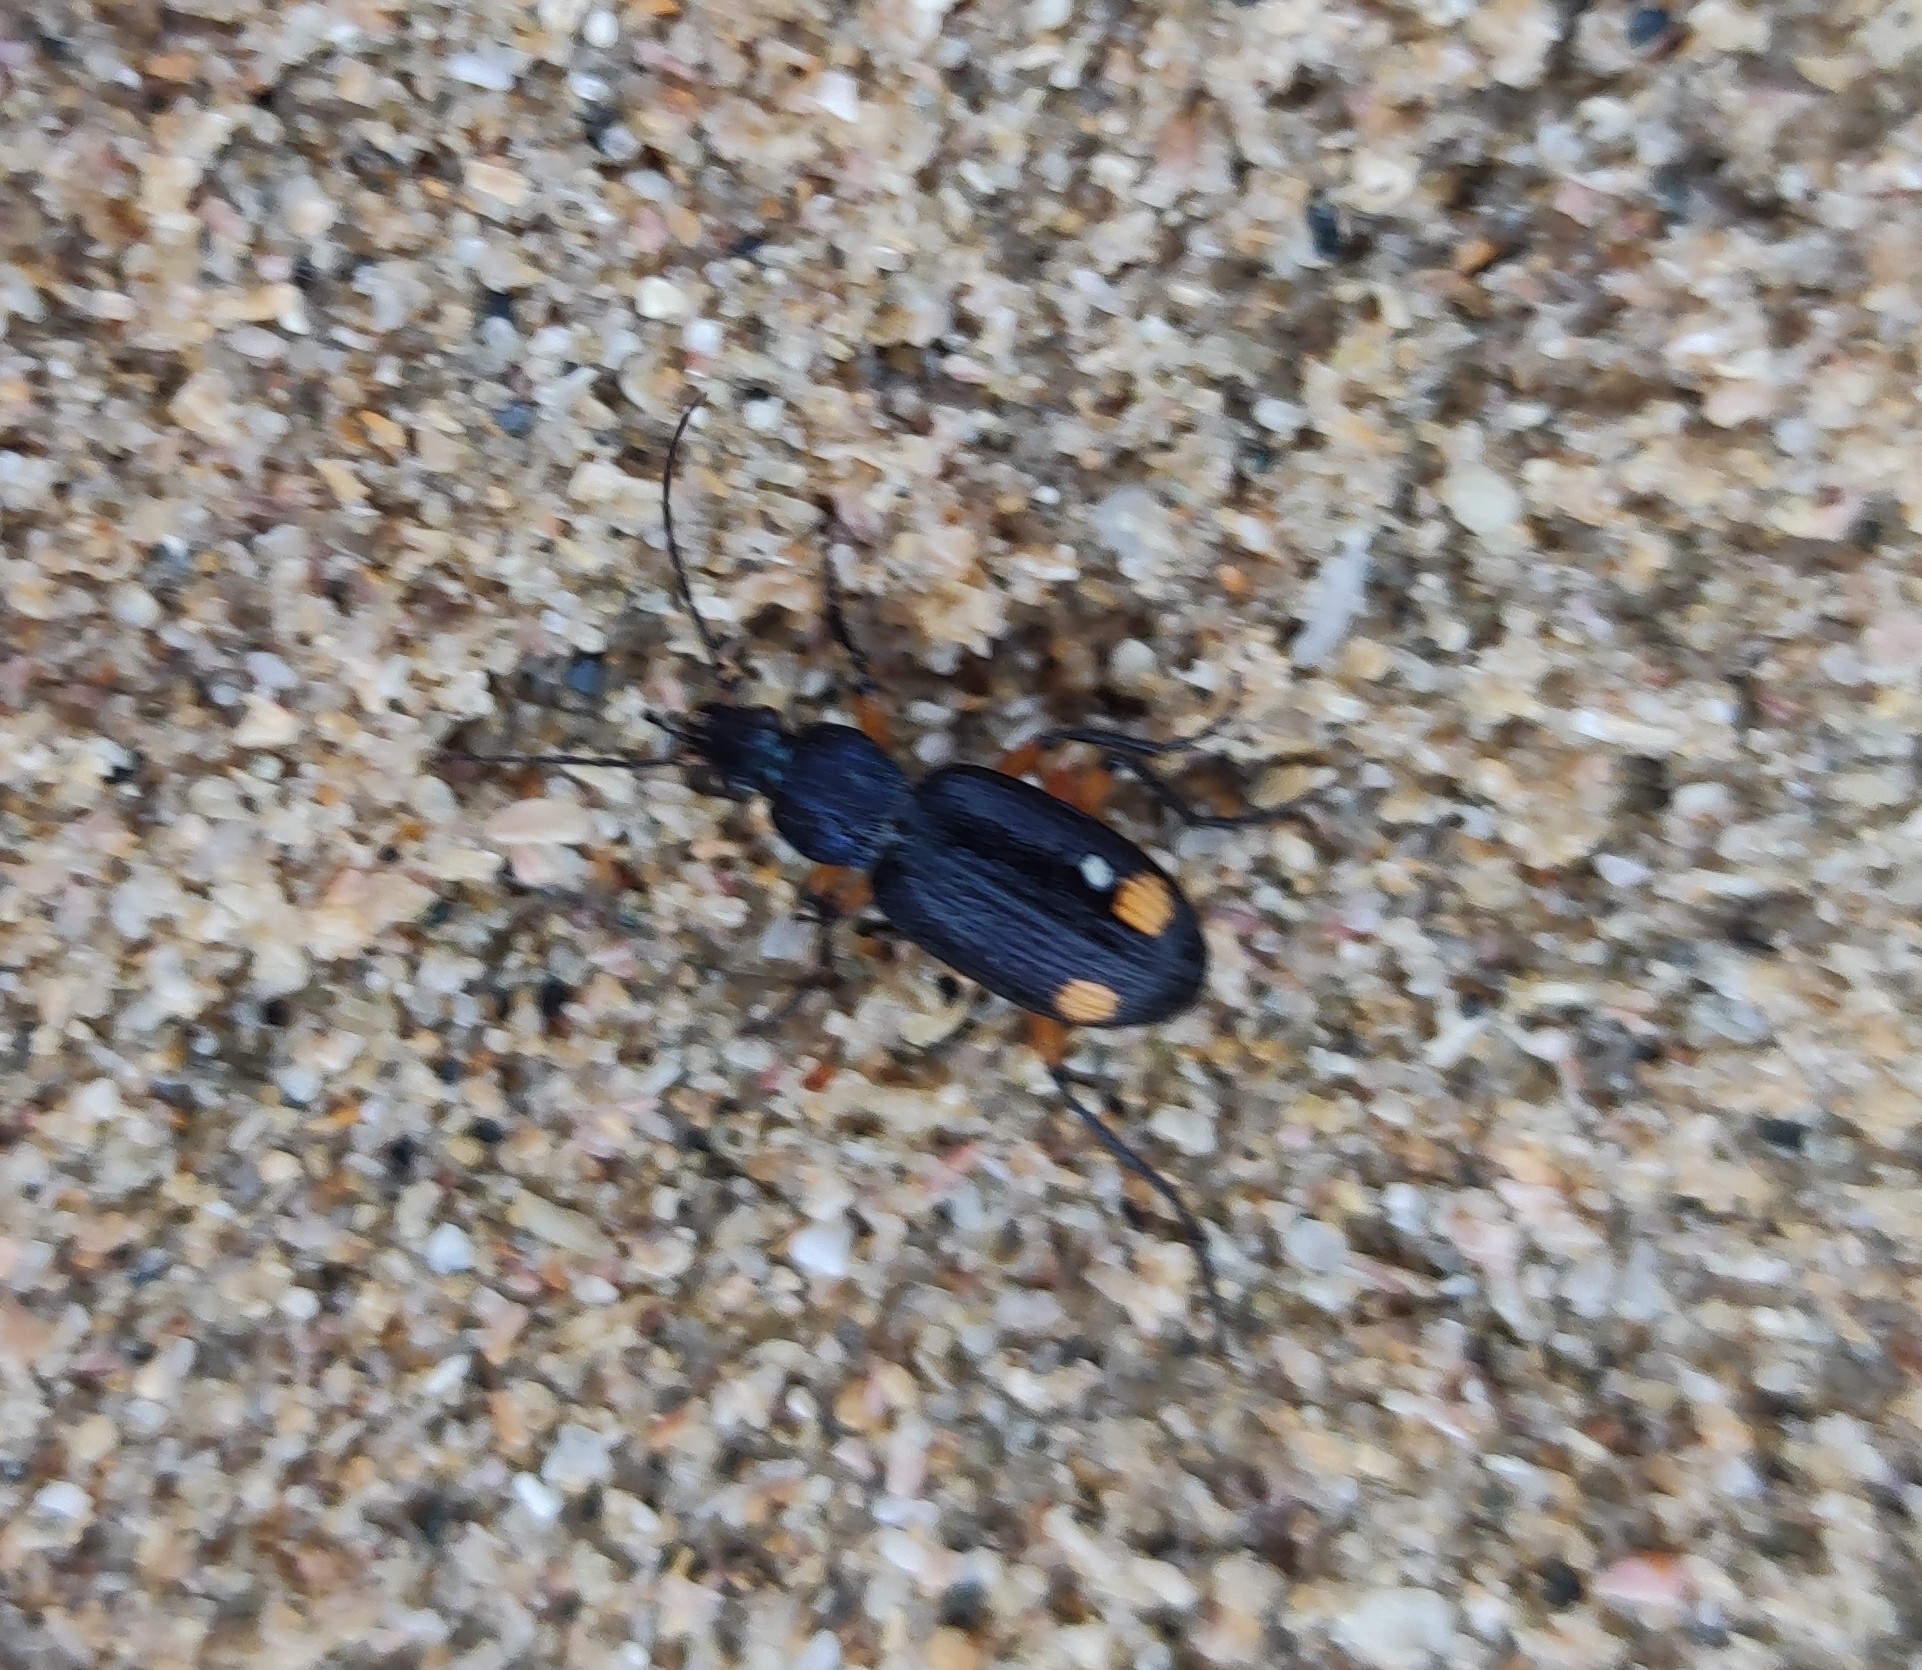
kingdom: Animalia
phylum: Arthropoda
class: Insecta
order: Coleoptera
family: Carabidae
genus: Chlaenius
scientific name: Chlaenius perspicillaris
